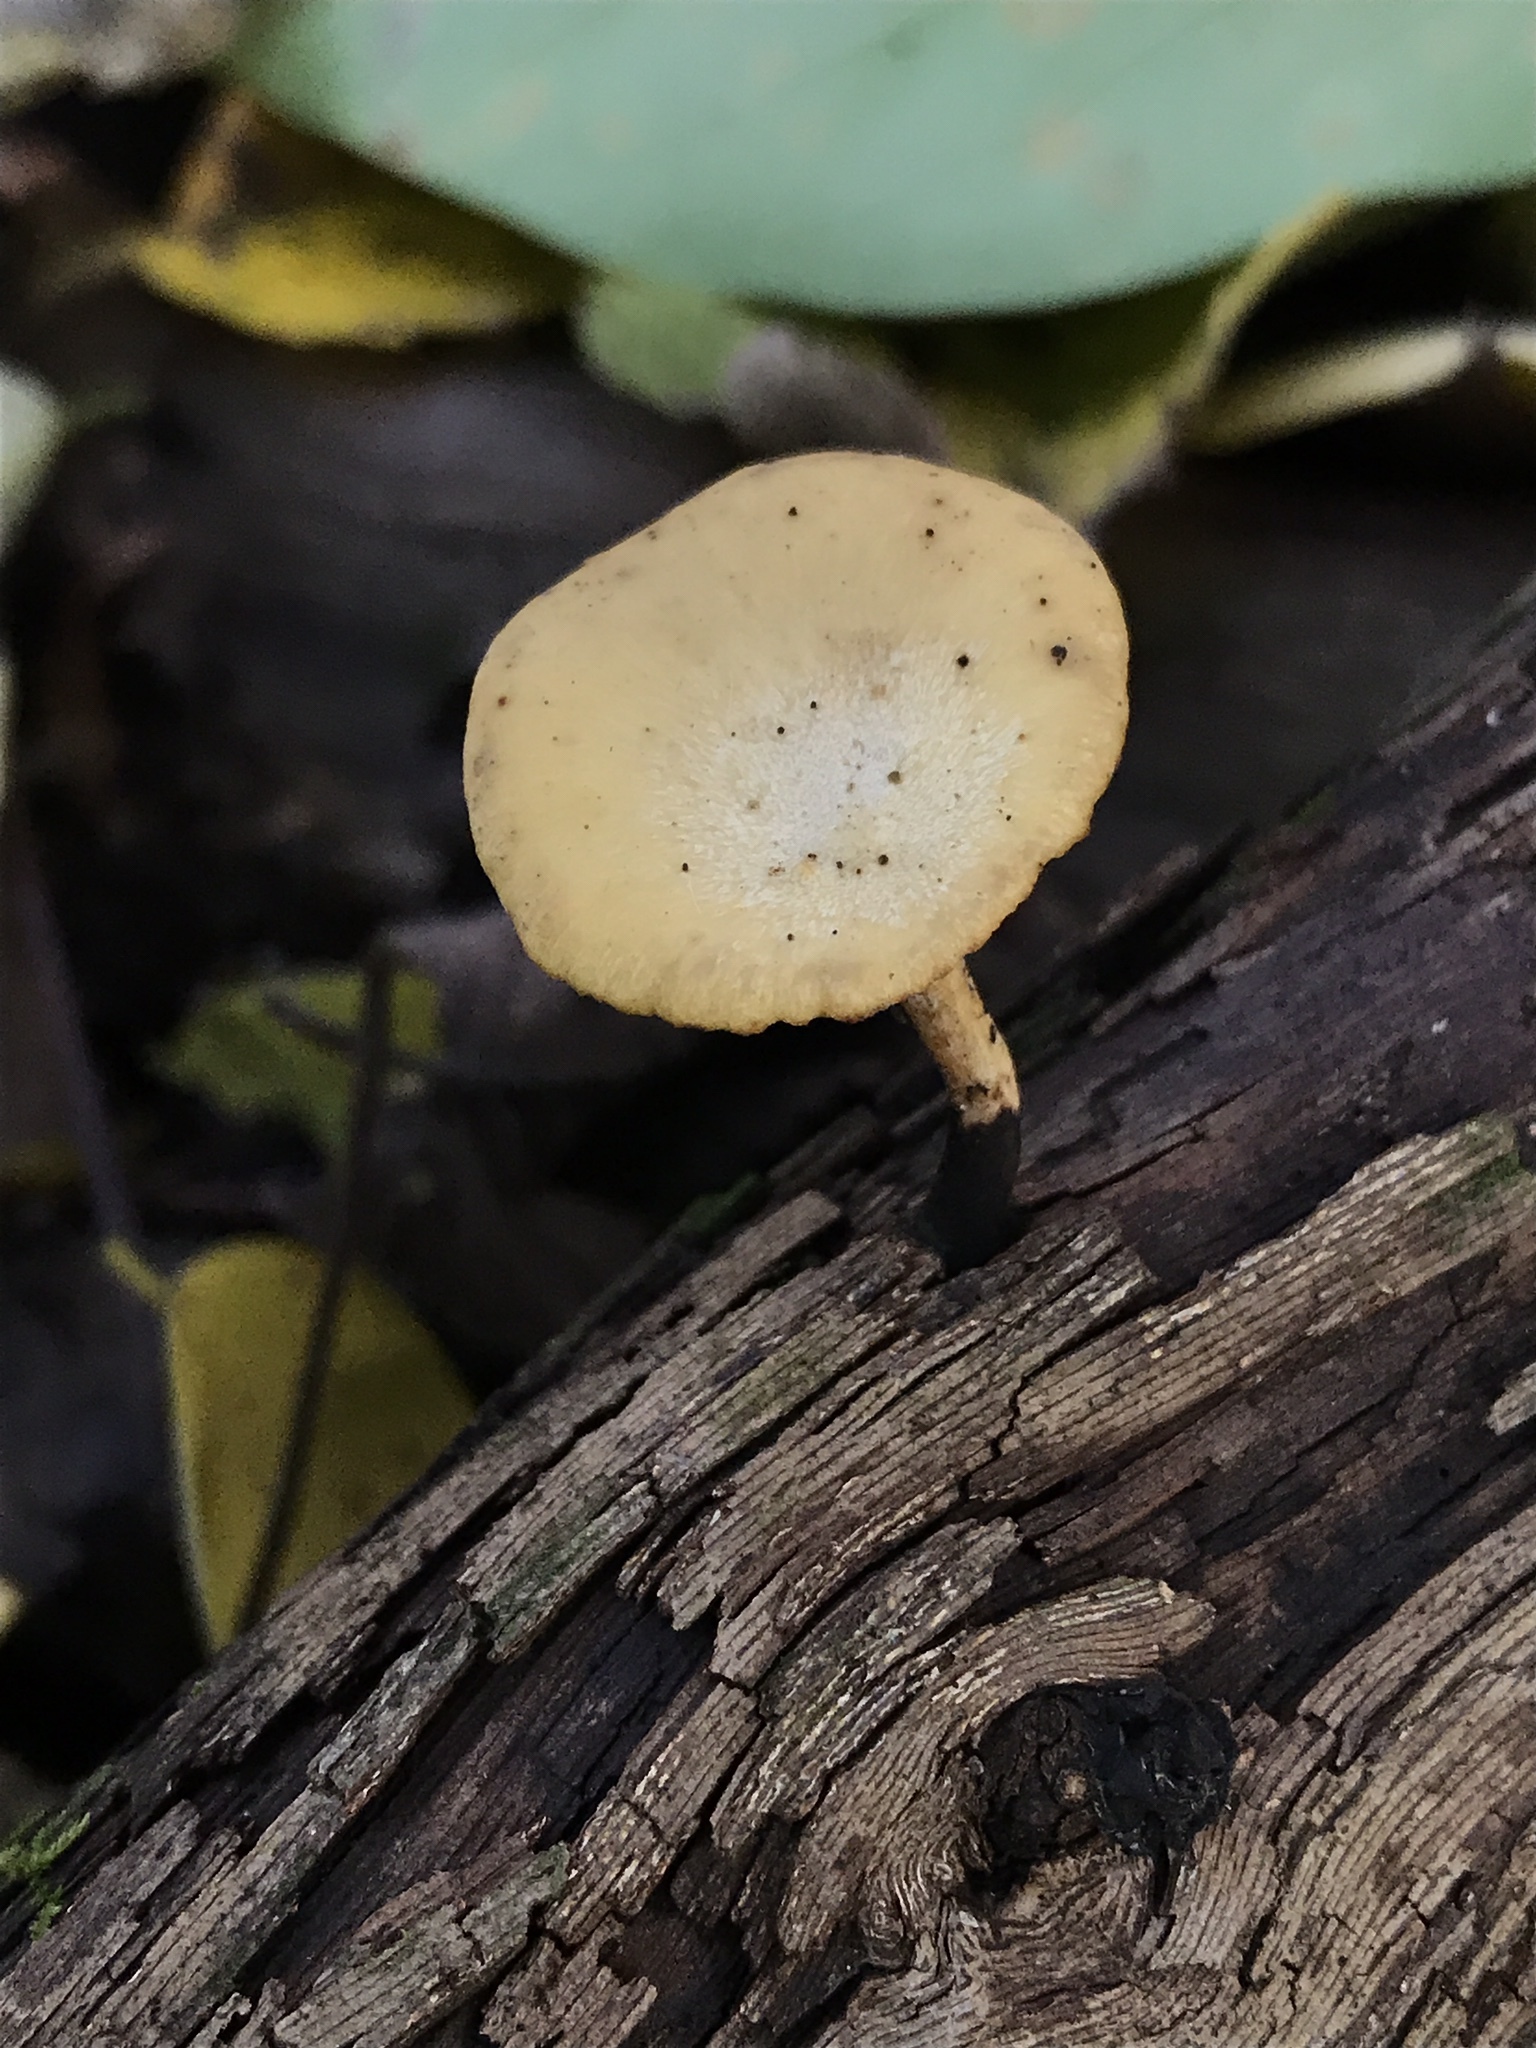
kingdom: Fungi
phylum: Basidiomycota
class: Agaricomycetes
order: Polyporales
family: Polyporaceae
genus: Cerioporus
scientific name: Cerioporus leptocephalus
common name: Blackfoot polypore
